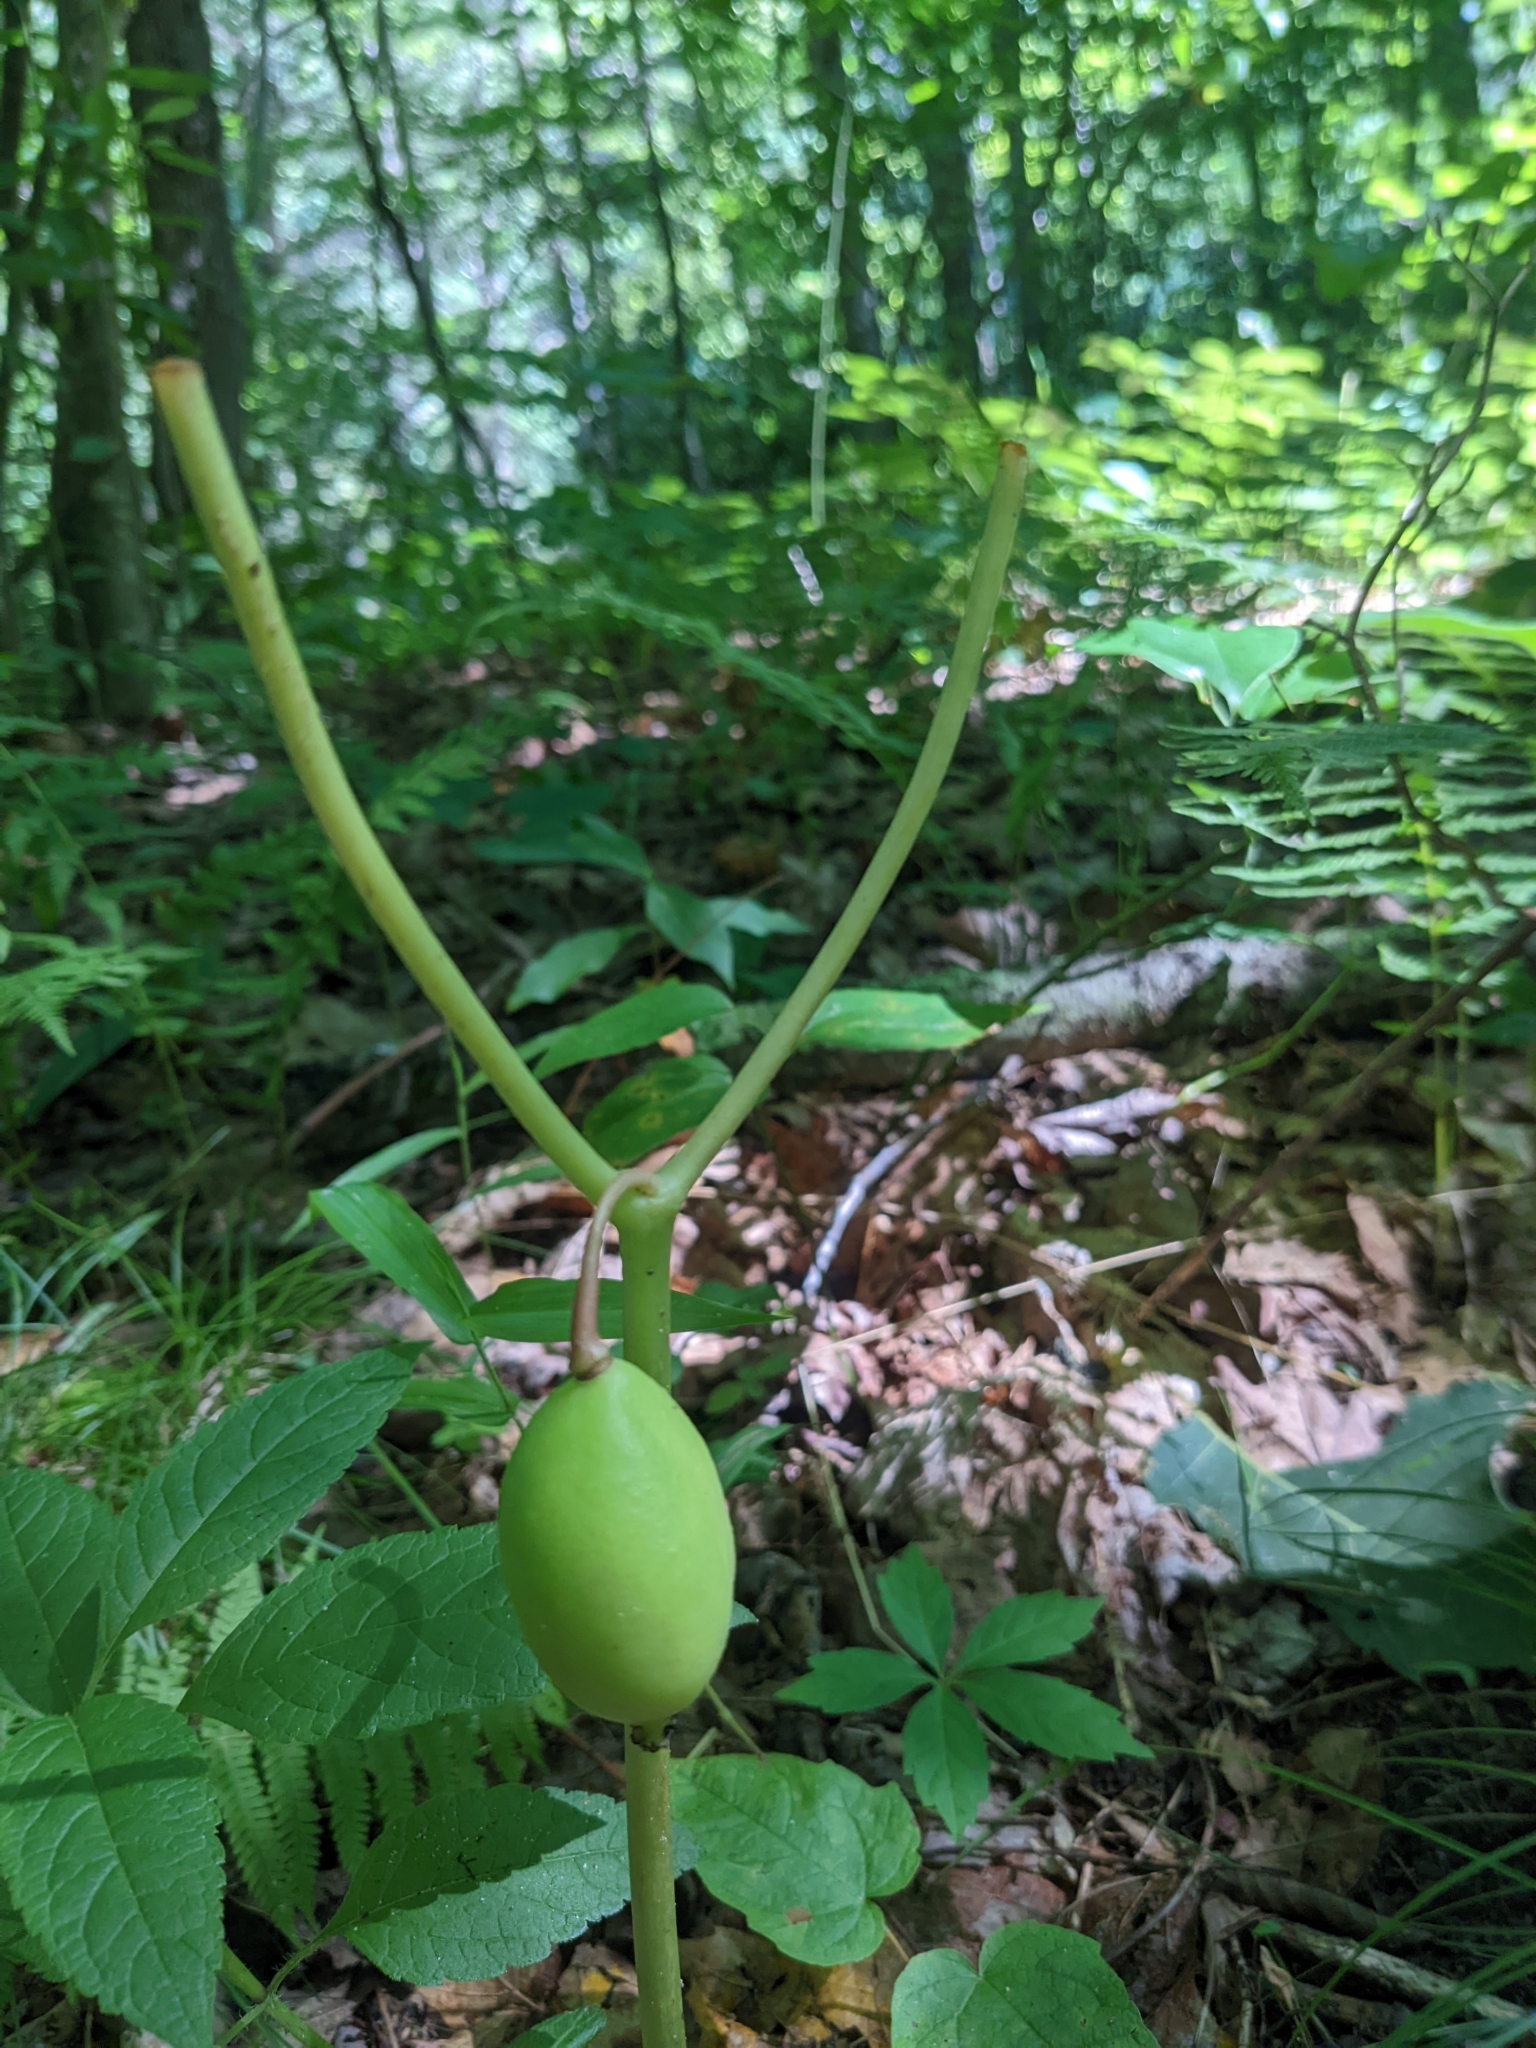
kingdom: Plantae
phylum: Tracheophyta
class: Magnoliopsida
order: Ranunculales
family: Berberidaceae
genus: Podophyllum
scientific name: Podophyllum peltatum
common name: Wild mandrake
